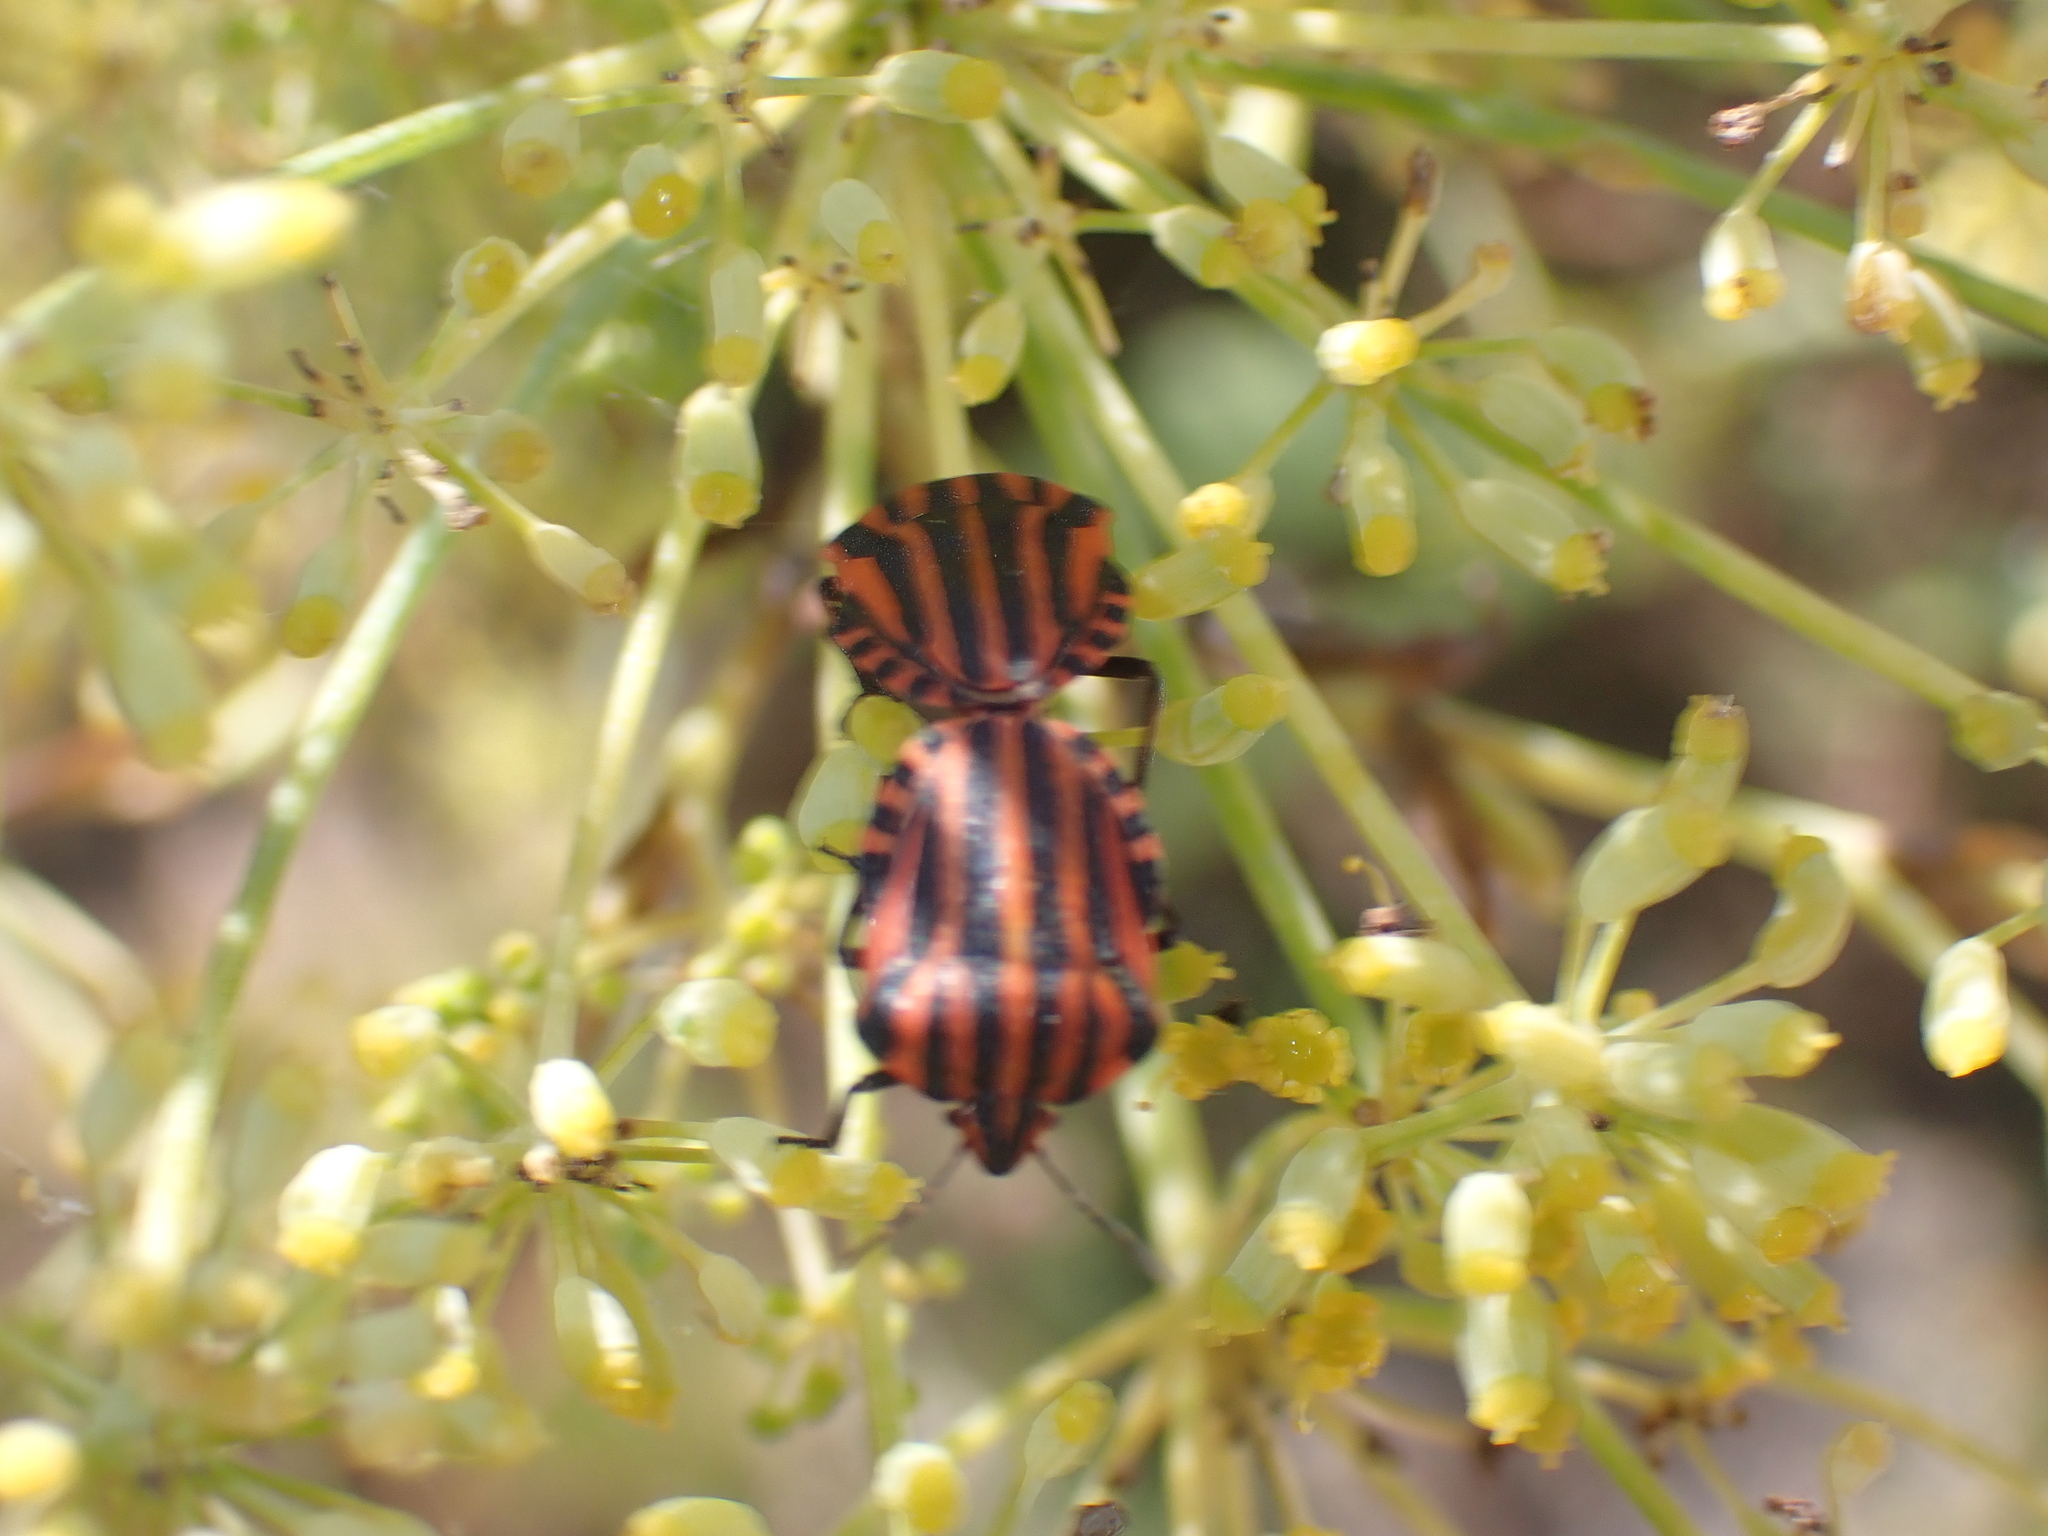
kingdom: Animalia
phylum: Arthropoda
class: Insecta
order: Hemiptera
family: Pentatomidae
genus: Graphosoma
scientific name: Graphosoma italicum
